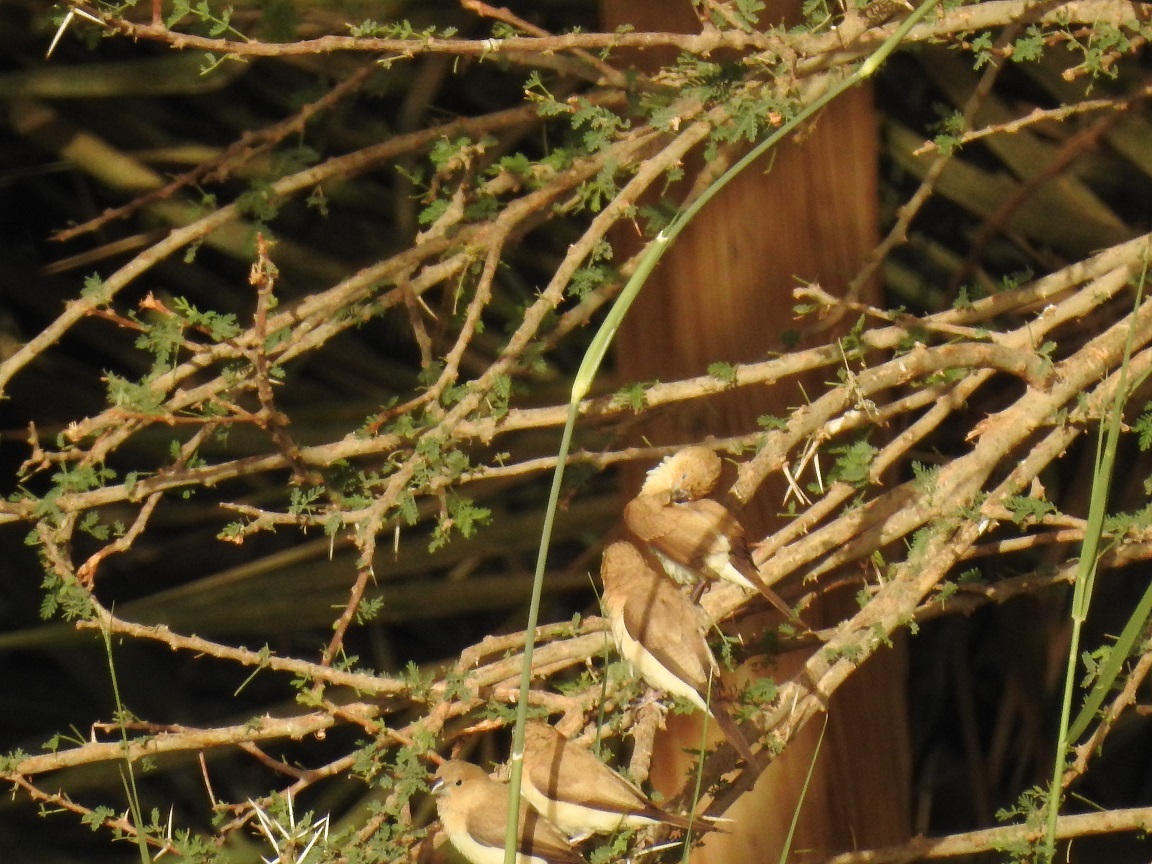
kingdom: Animalia
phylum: Chordata
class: Aves
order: Passeriformes
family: Estrildidae
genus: Euodice
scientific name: Euodice cantans
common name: African silverbill
